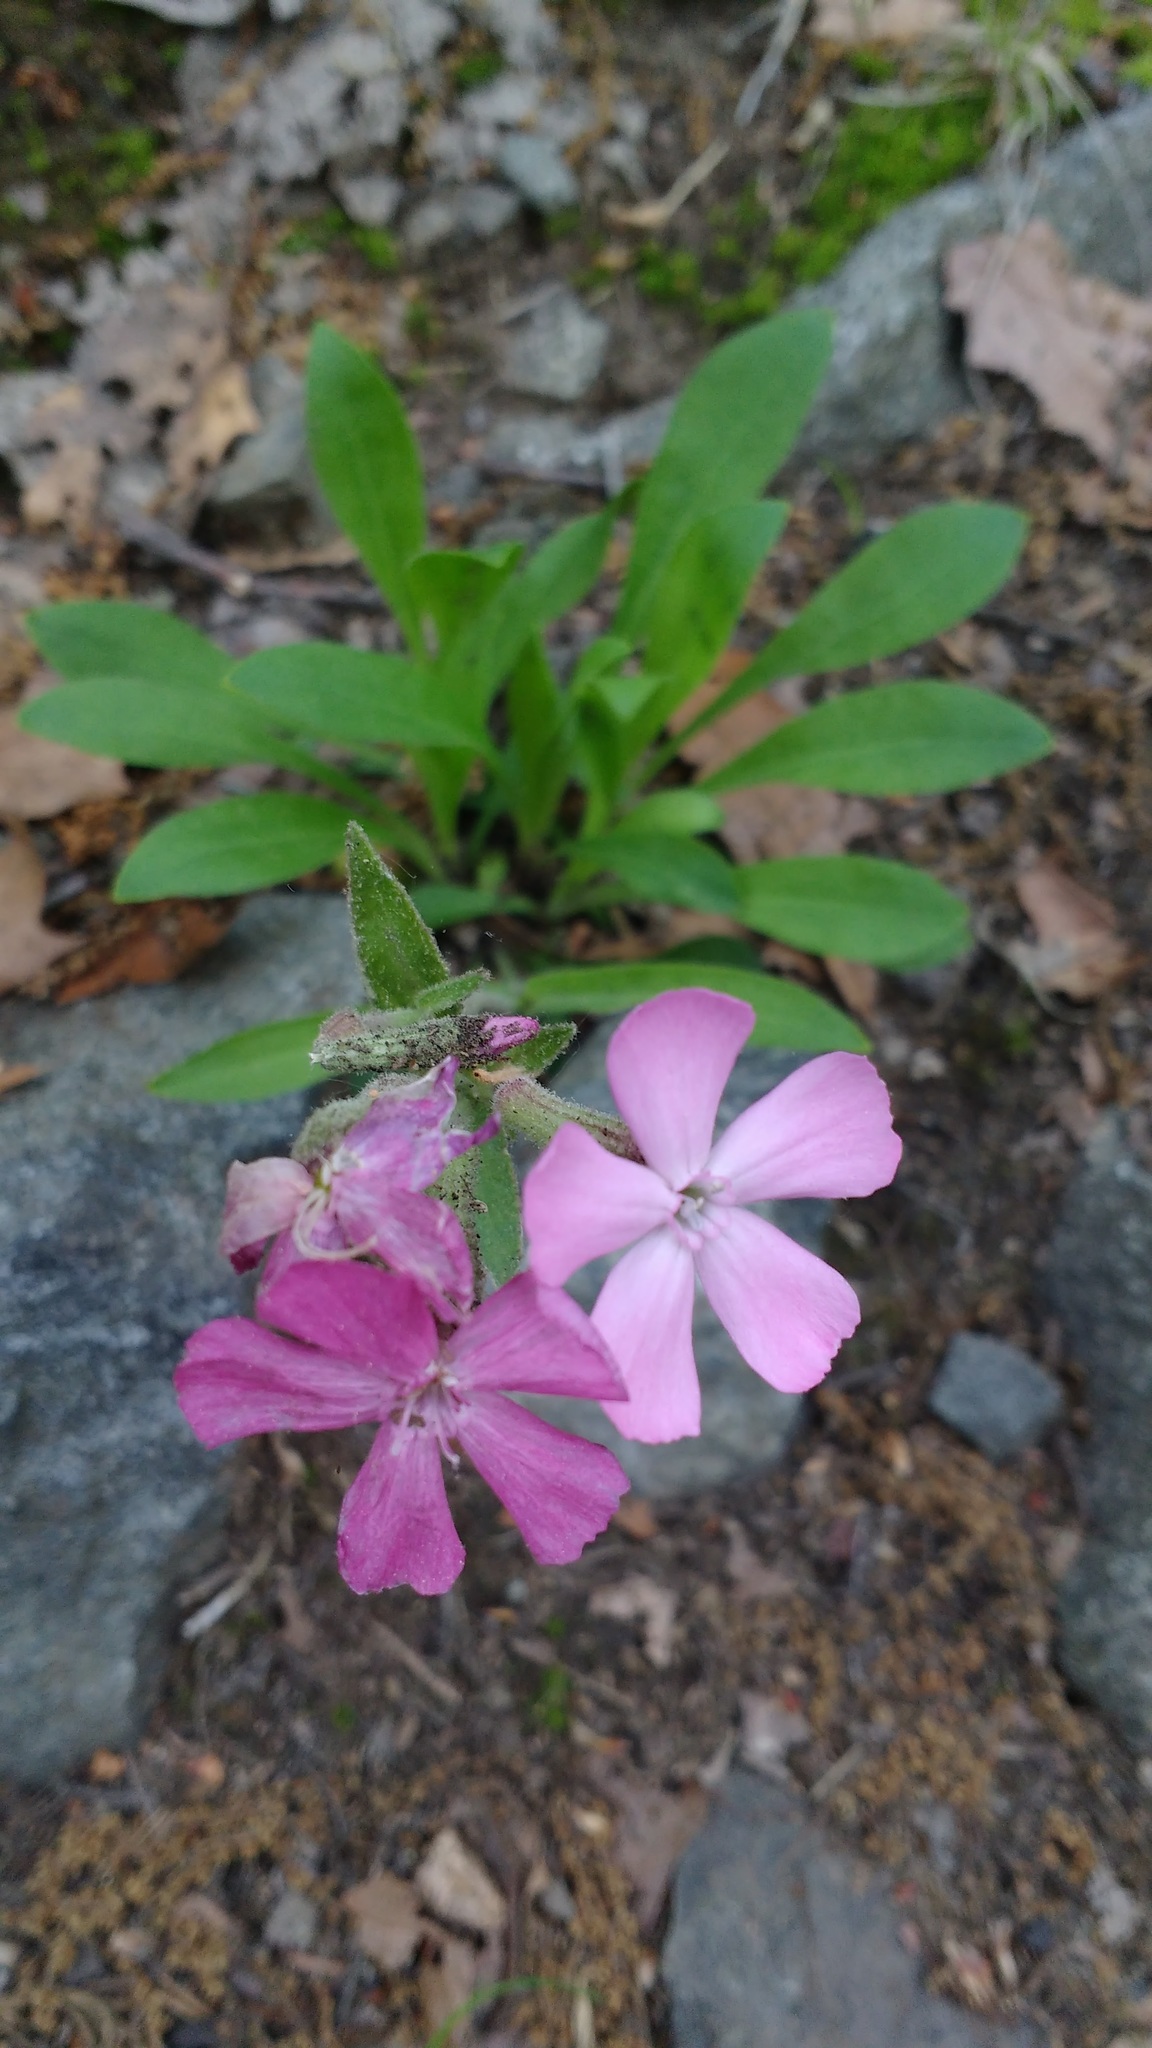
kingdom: Plantae
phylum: Tracheophyta
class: Magnoliopsida
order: Caryophyllales
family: Caryophyllaceae
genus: Silene
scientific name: Silene caroliniana
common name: Sticky catchfly
